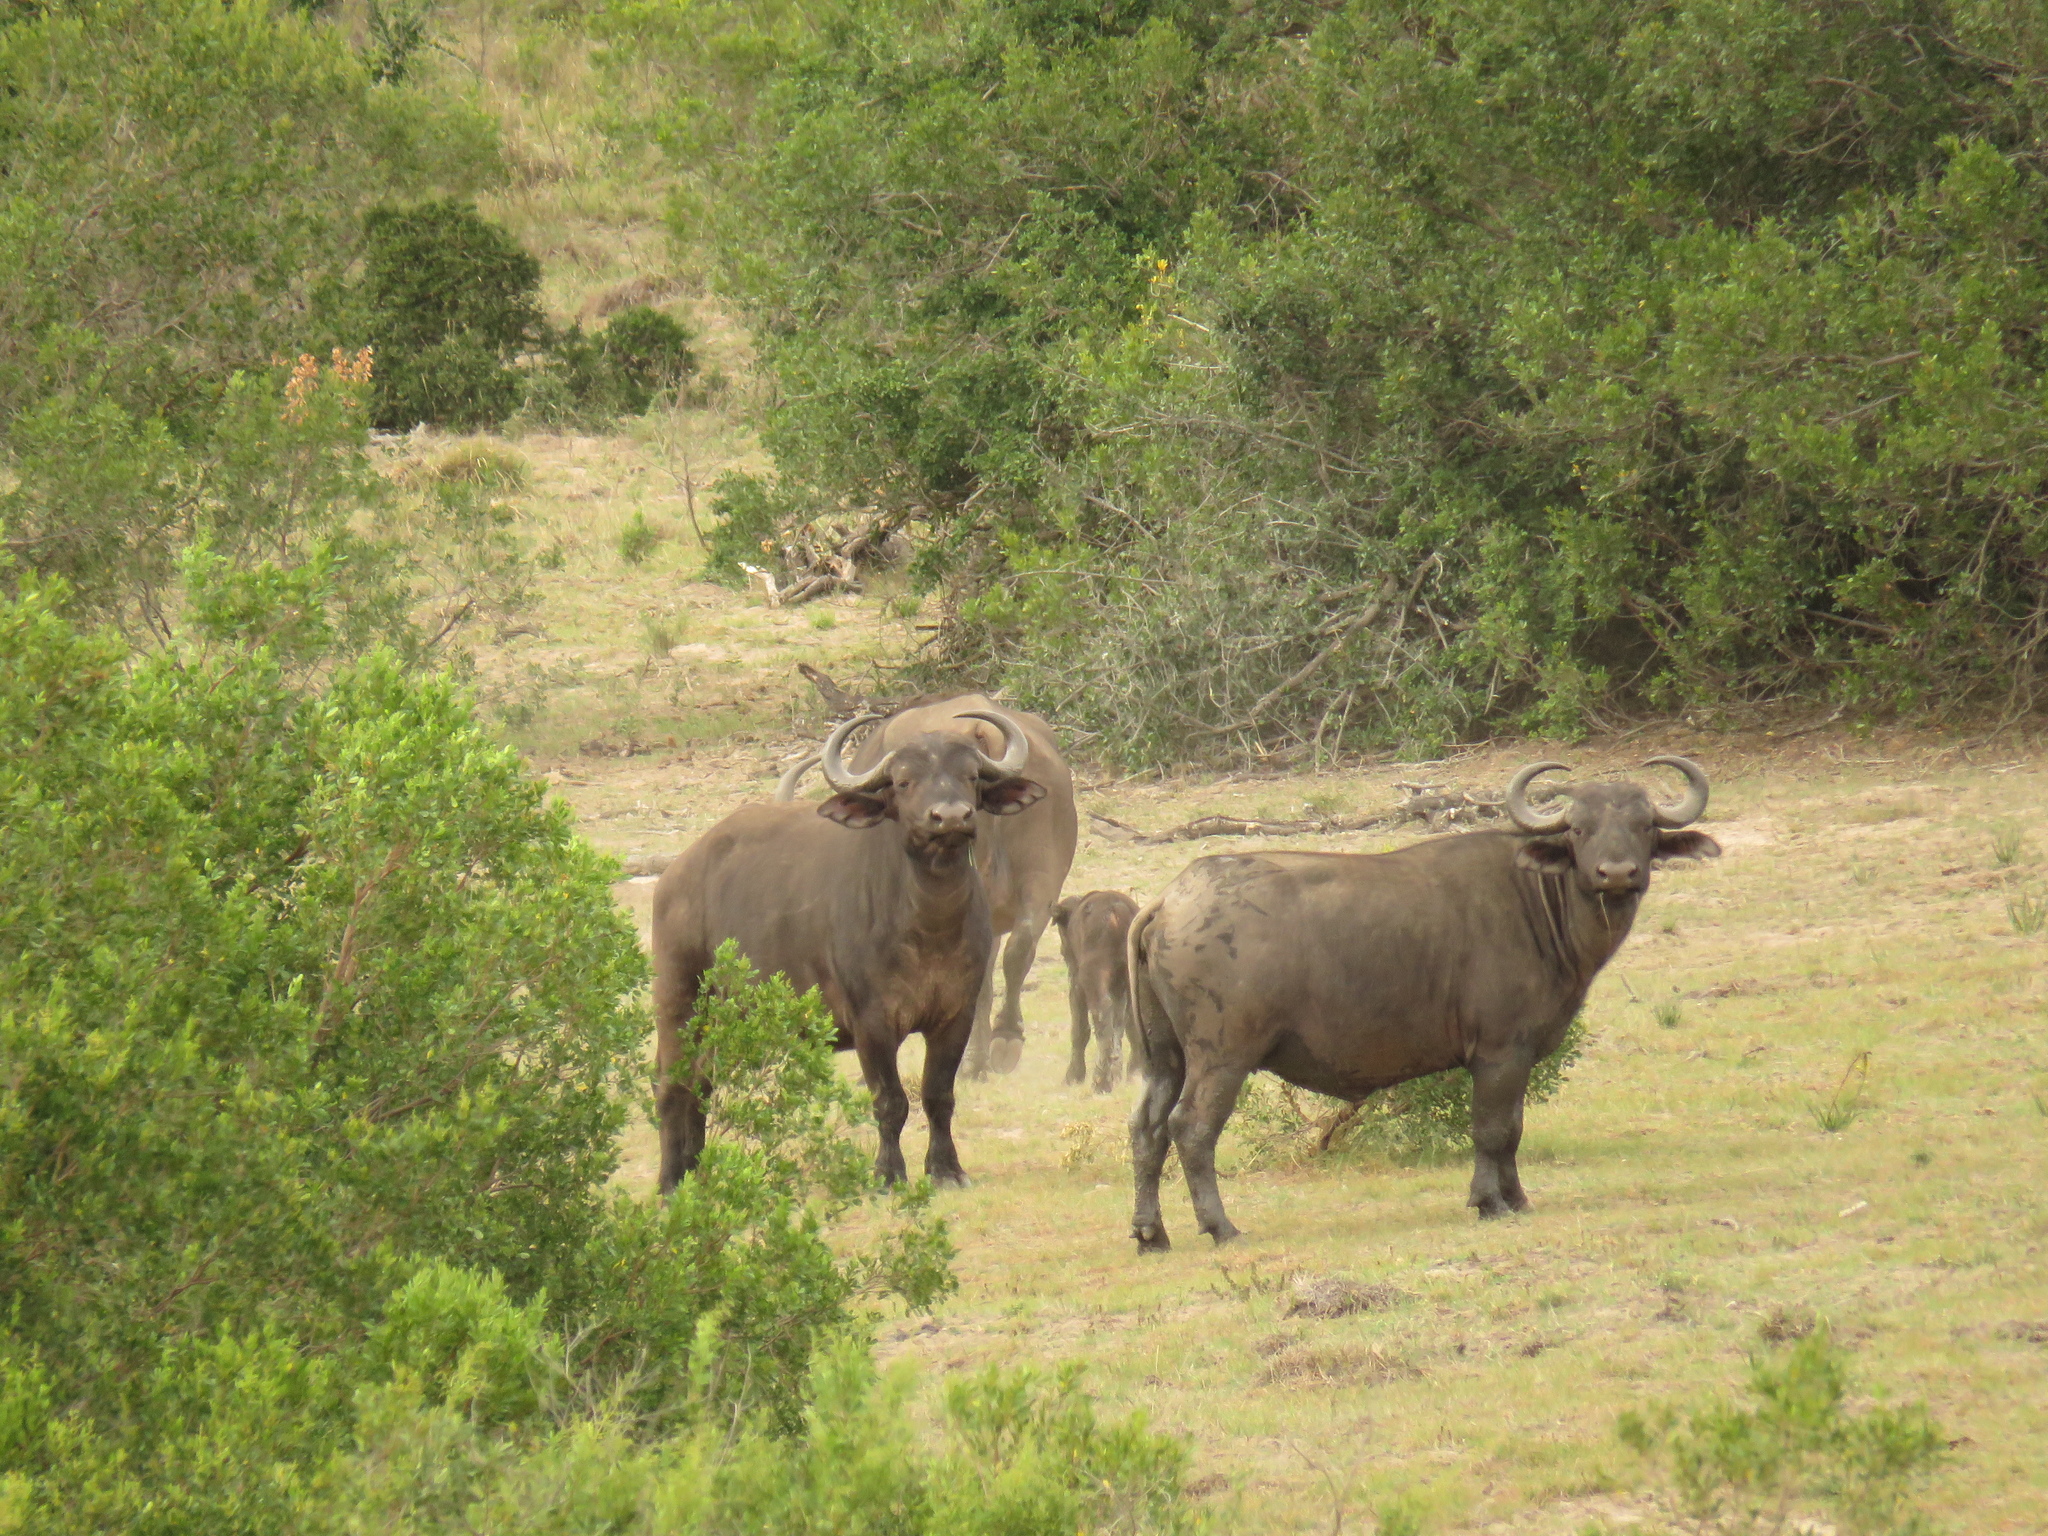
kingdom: Animalia
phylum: Chordata
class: Mammalia
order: Artiodactyla
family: Bovidae
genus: Syncerus
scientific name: Syncerus caffer
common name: African buffalo
